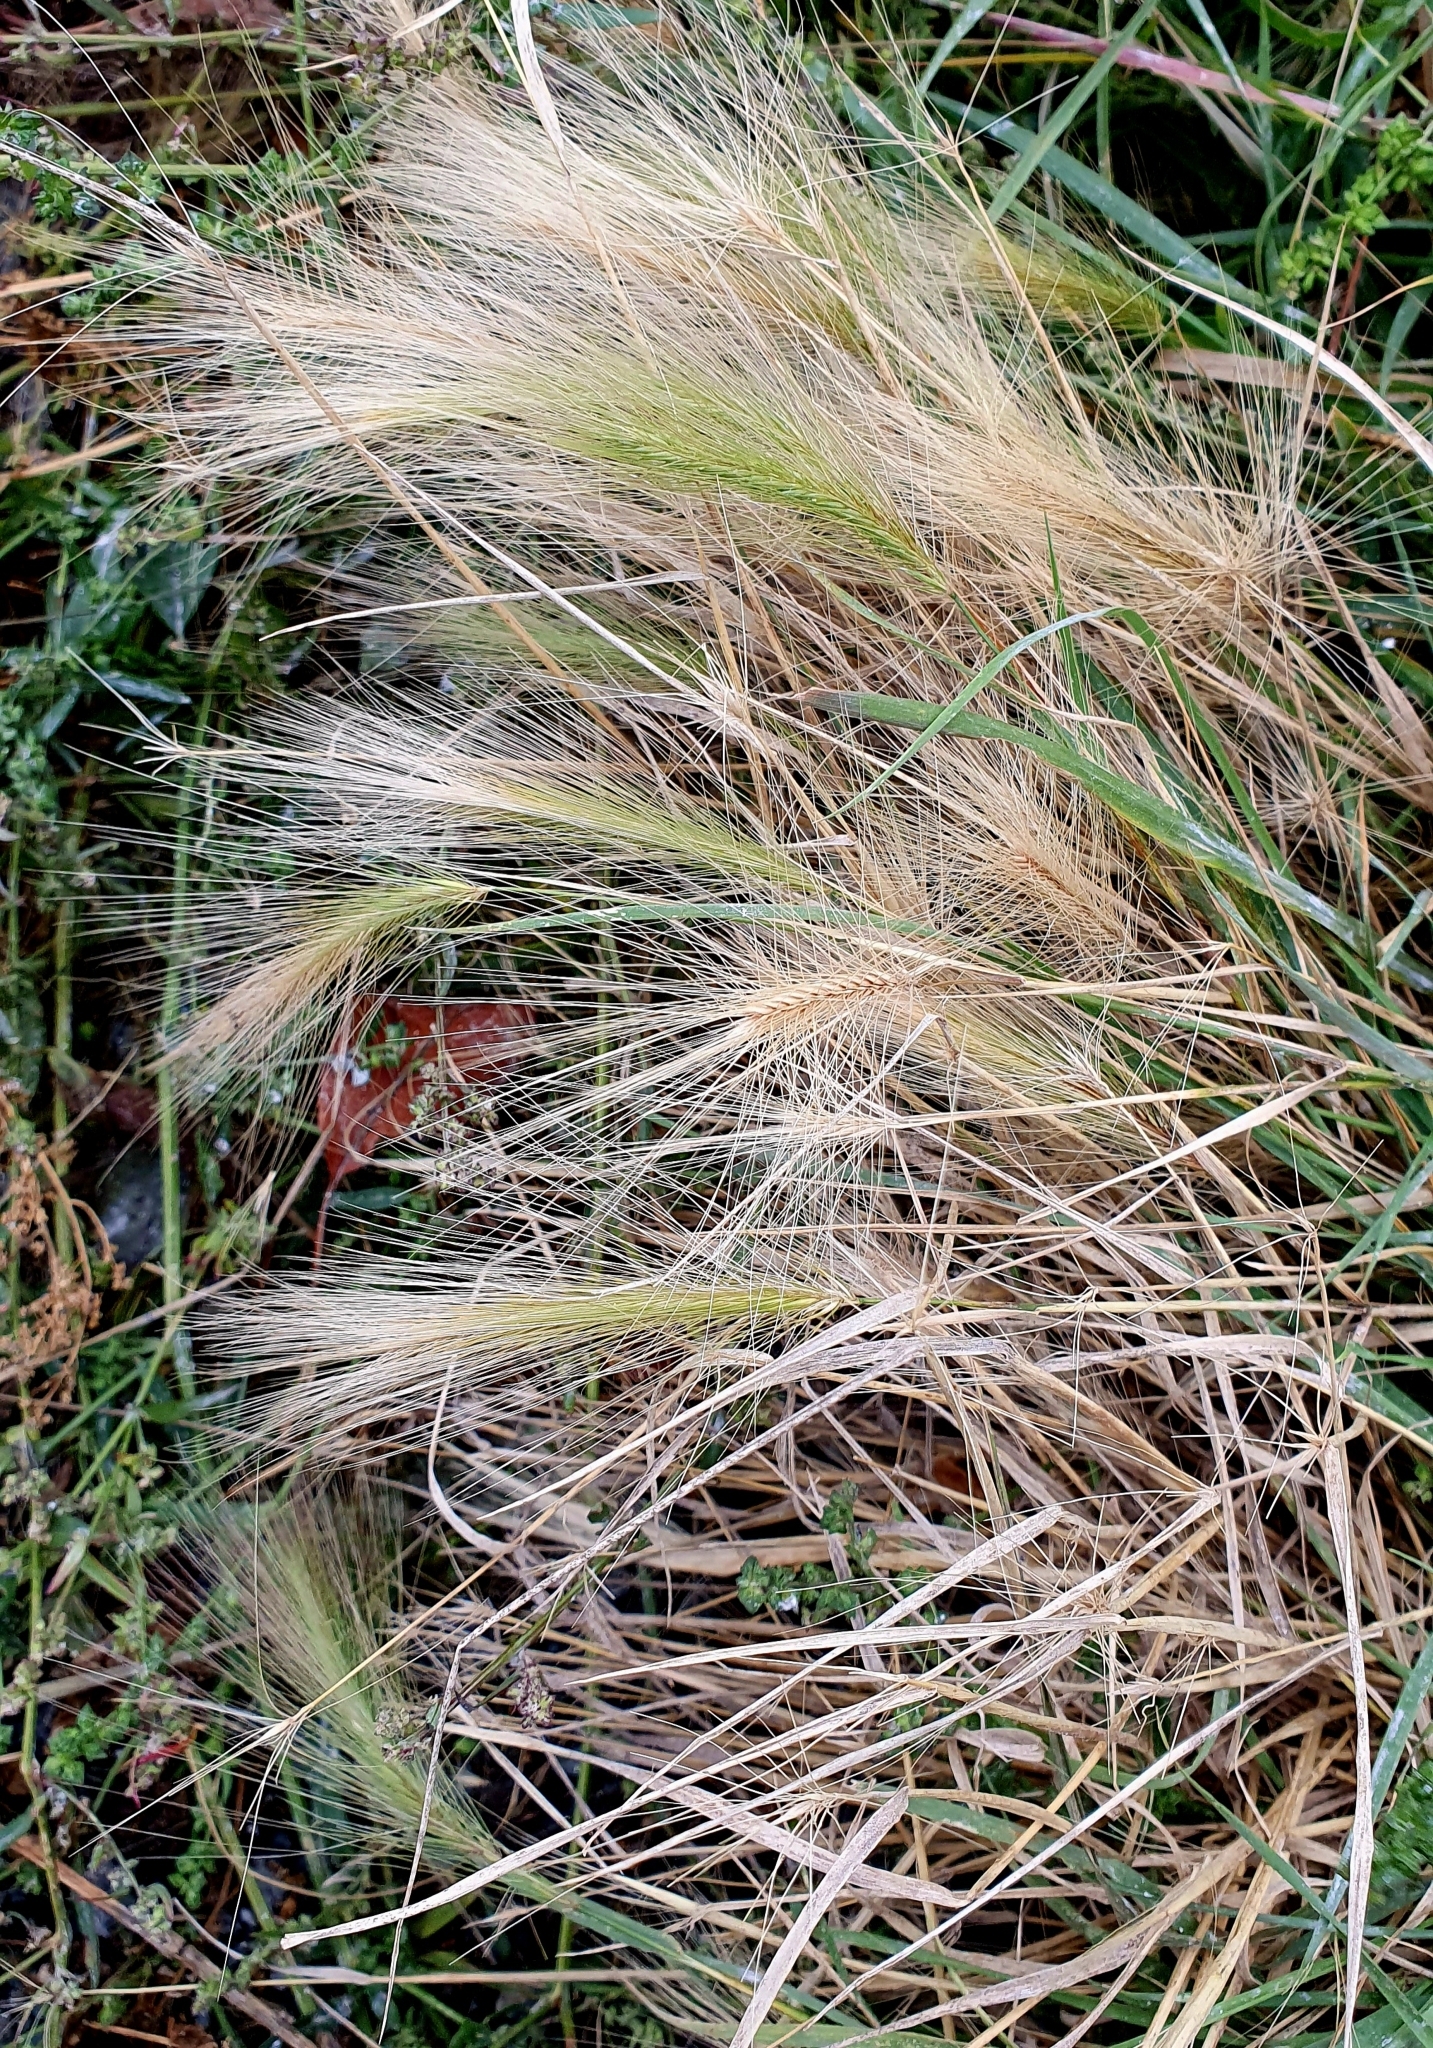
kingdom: Plantae
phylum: Tracheophyta
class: Liliopsida
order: Poales
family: Poaceae
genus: Hordeum
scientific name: Hordeum jubatum
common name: Foxtail barley
